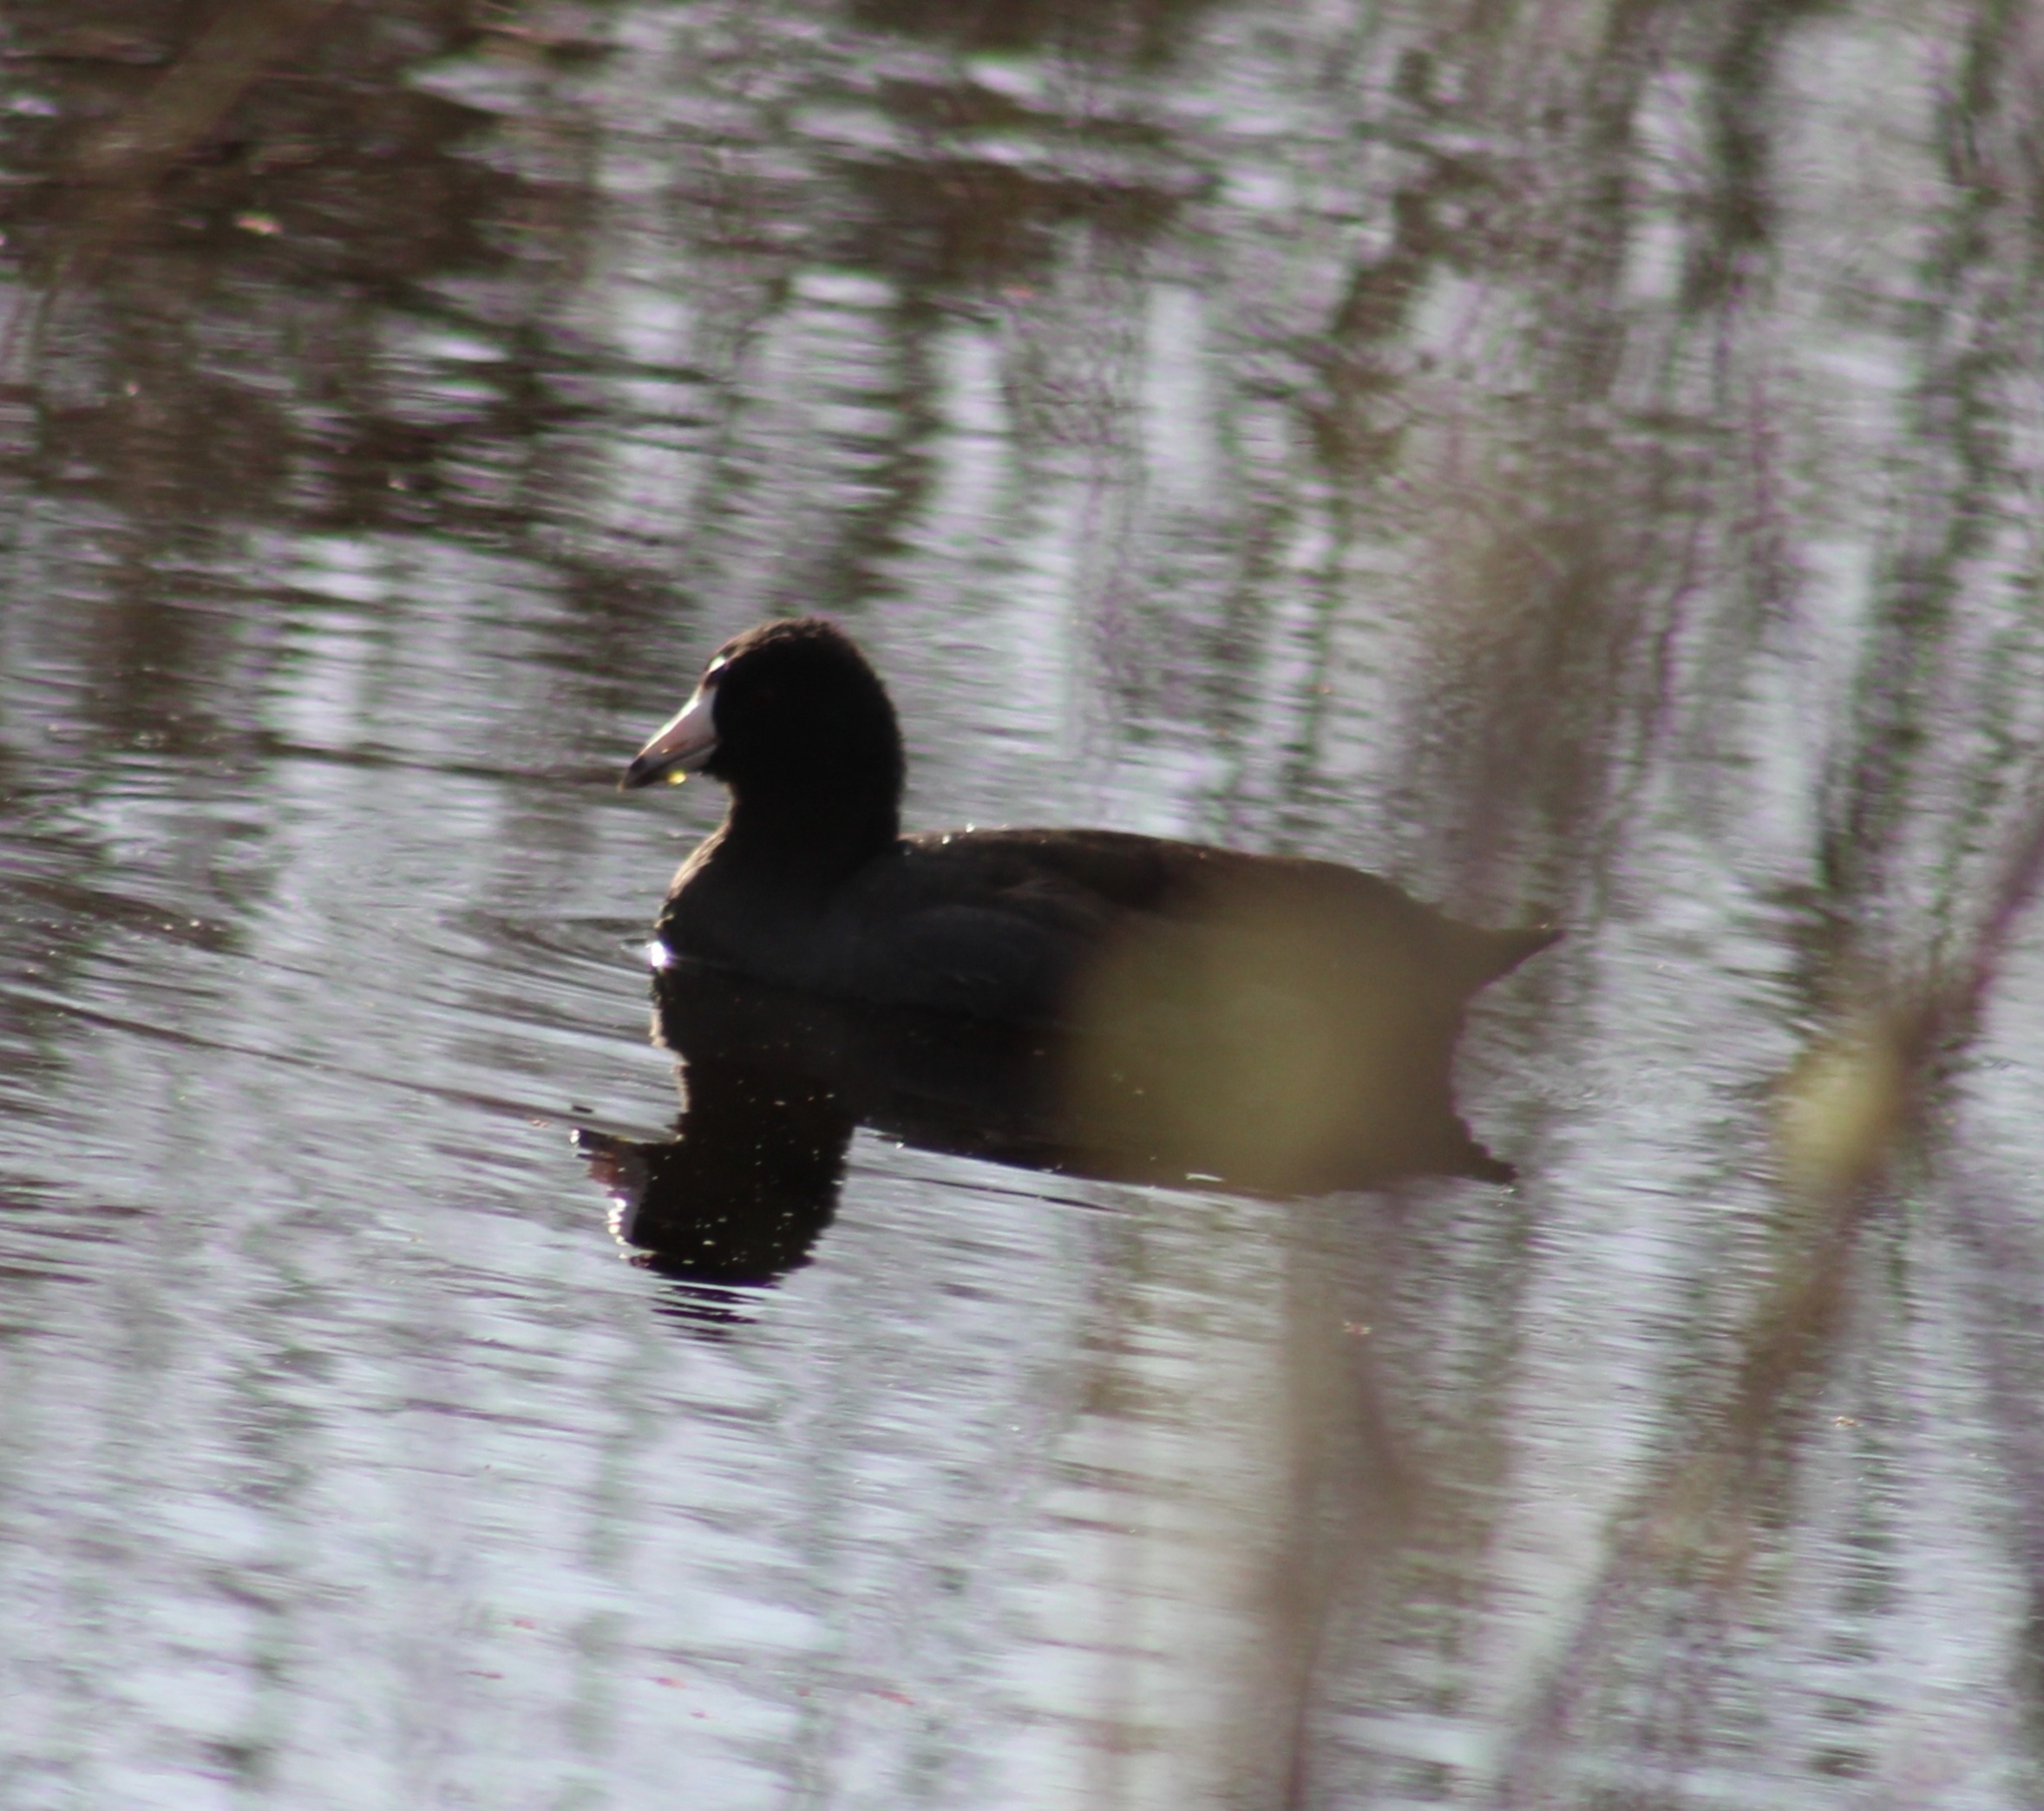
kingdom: Animalia
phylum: Chordata
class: Aves
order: Gruiformes
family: Rallidae
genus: Fulica
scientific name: Fulica americana
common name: American coot
